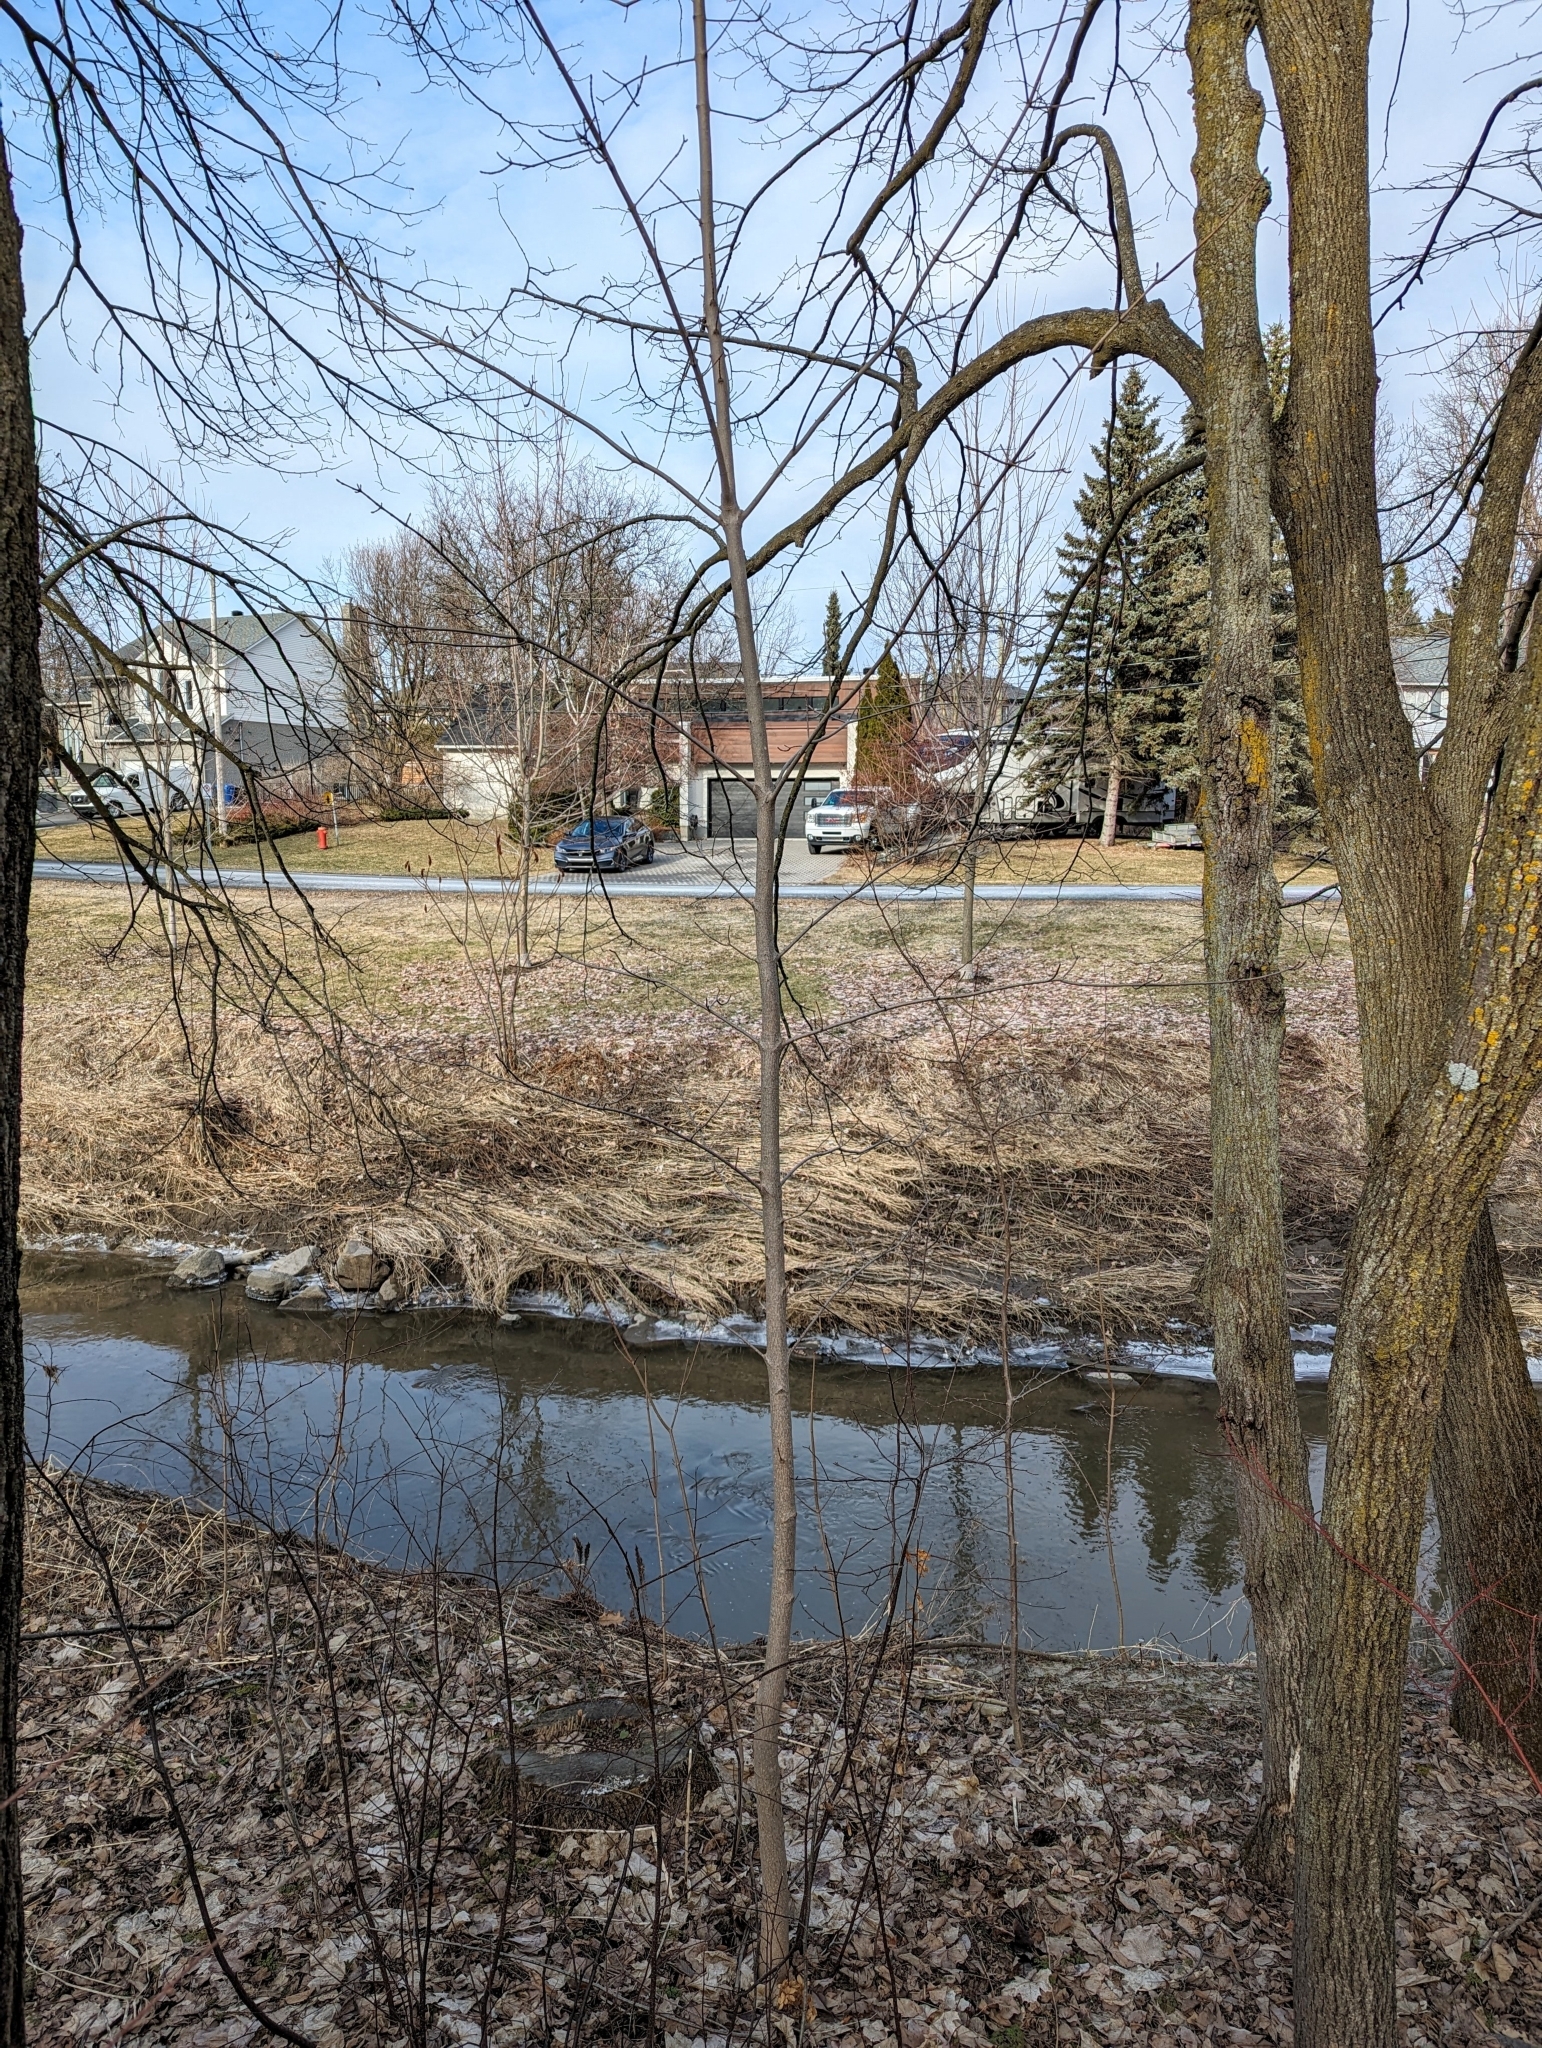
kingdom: Plantae
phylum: Tracheophyta
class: Magnoliopsida
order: Sapindales
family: Sapindaceae
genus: Acer
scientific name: Acer platanoides
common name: Norway maple
